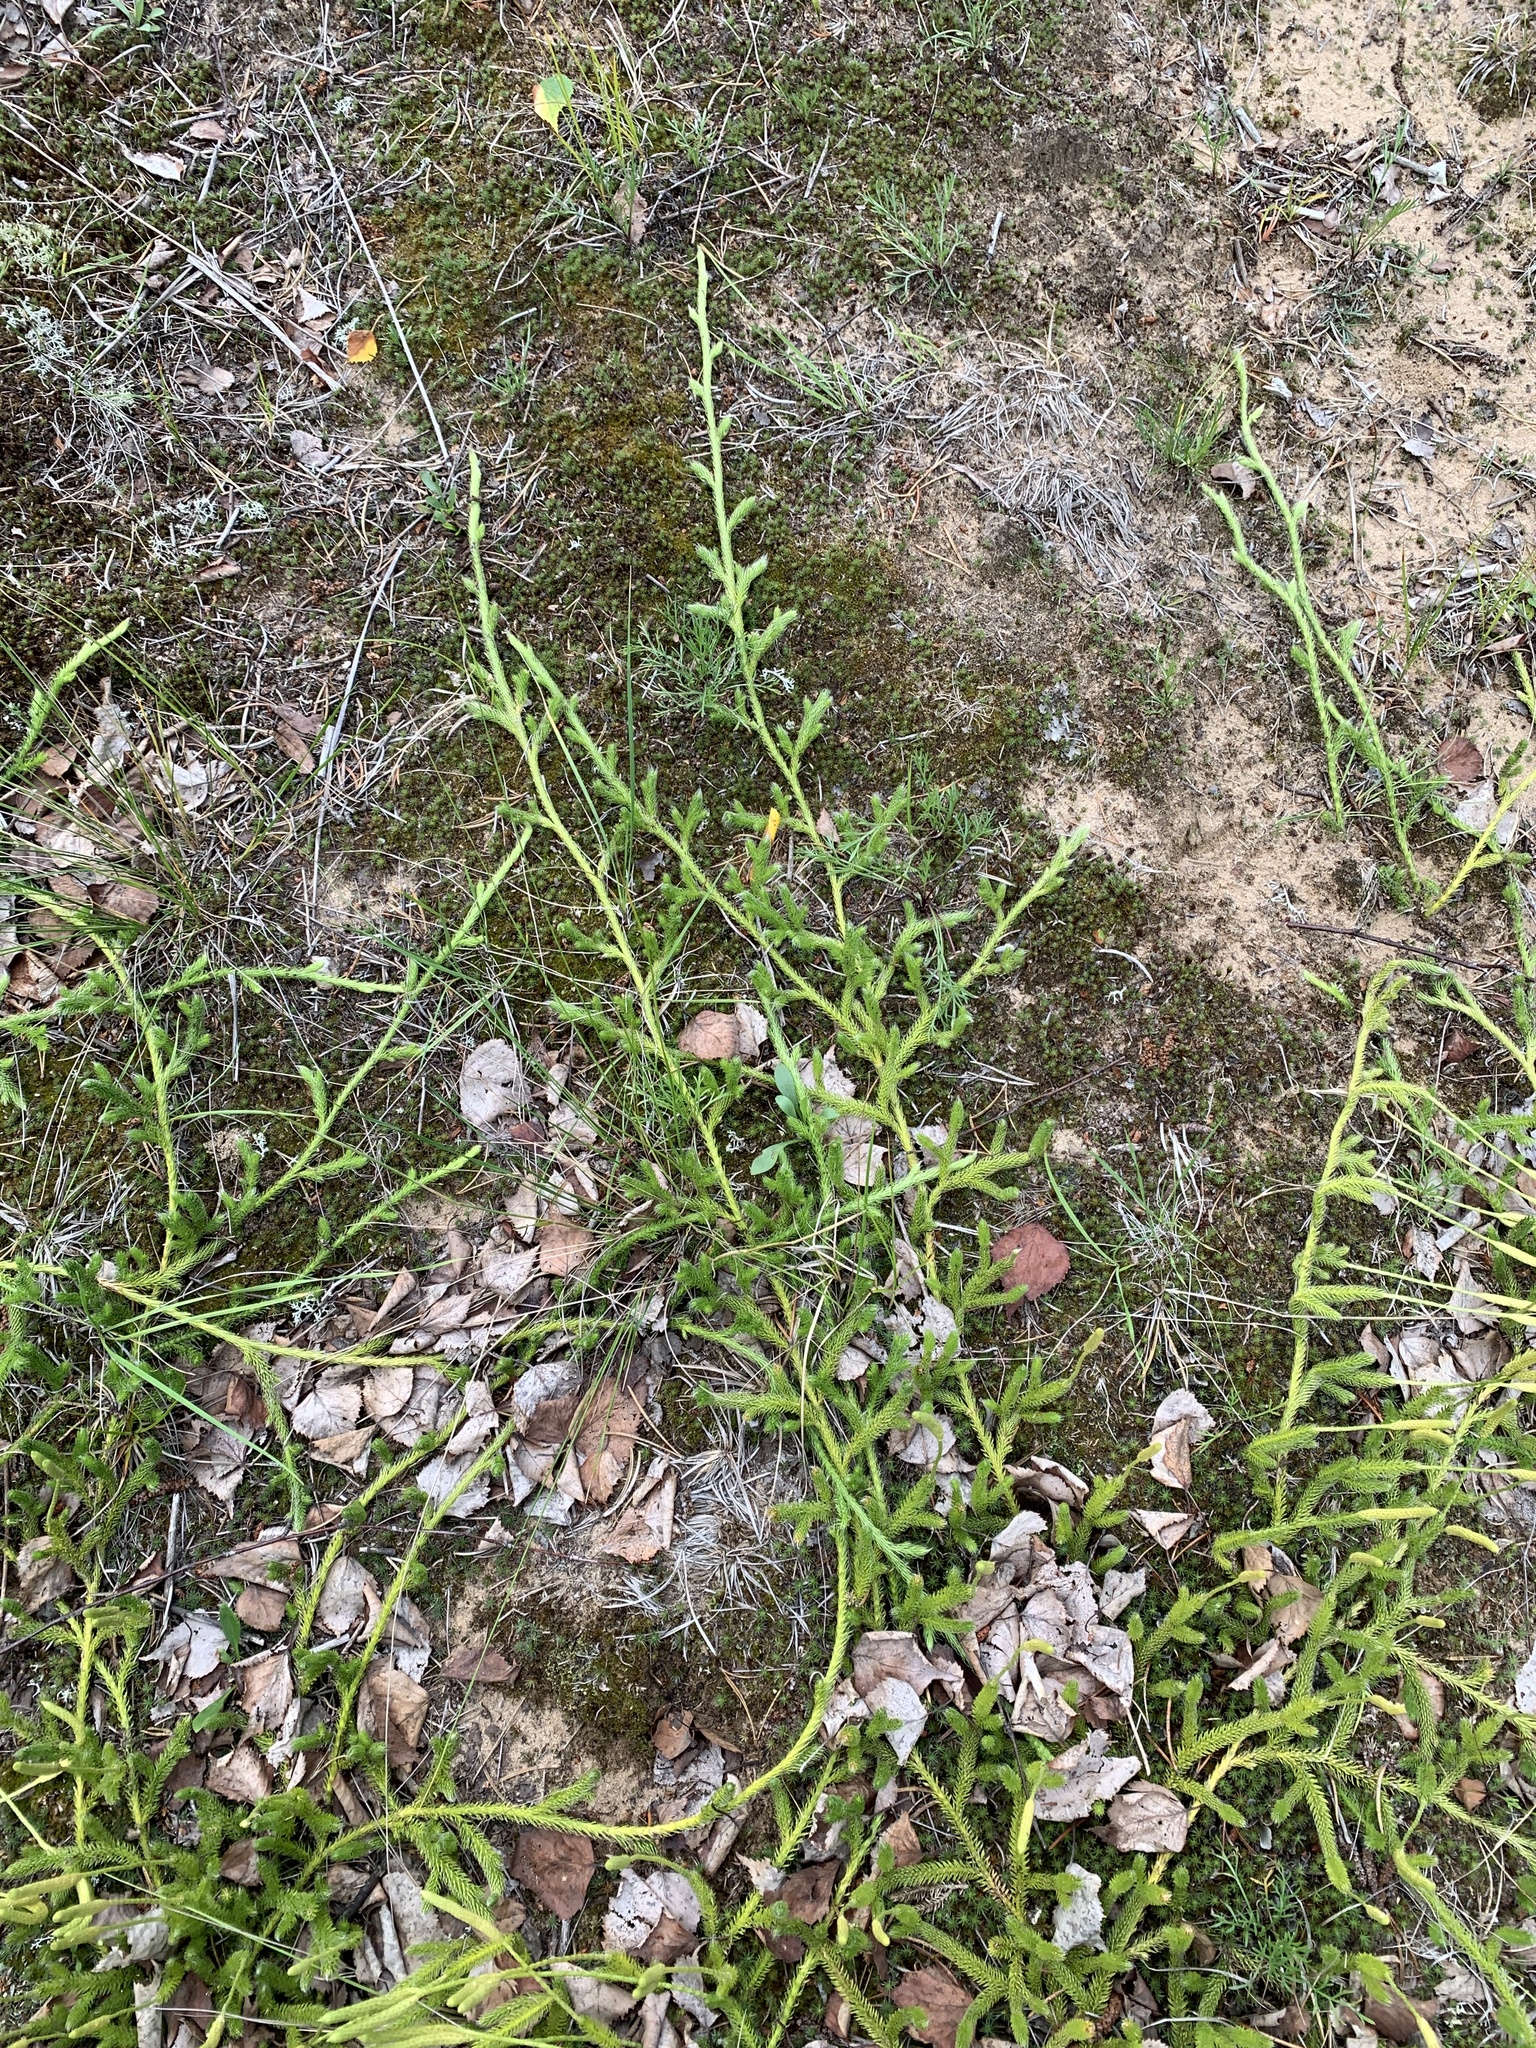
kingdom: Plantae
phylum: Tracheophyta
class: Lycopodiopsida
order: Lycopodiales
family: Lycopodiaceae
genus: Lycopodium
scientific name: Lycopodium clavatum
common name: Stag's-horn clubmoss
